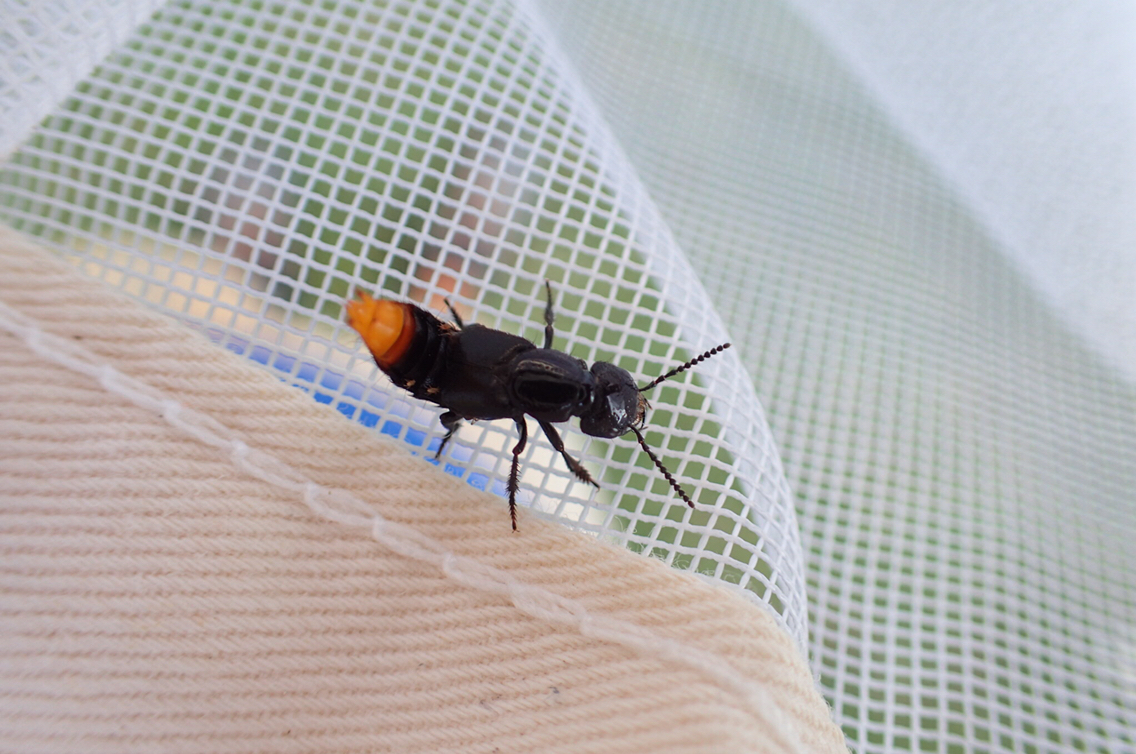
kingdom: Animalia
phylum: Arthropoda
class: Insecta
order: Coleoptera
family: Staphylinidae
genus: Xanthopygus
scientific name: Xanthopygus cognatus
